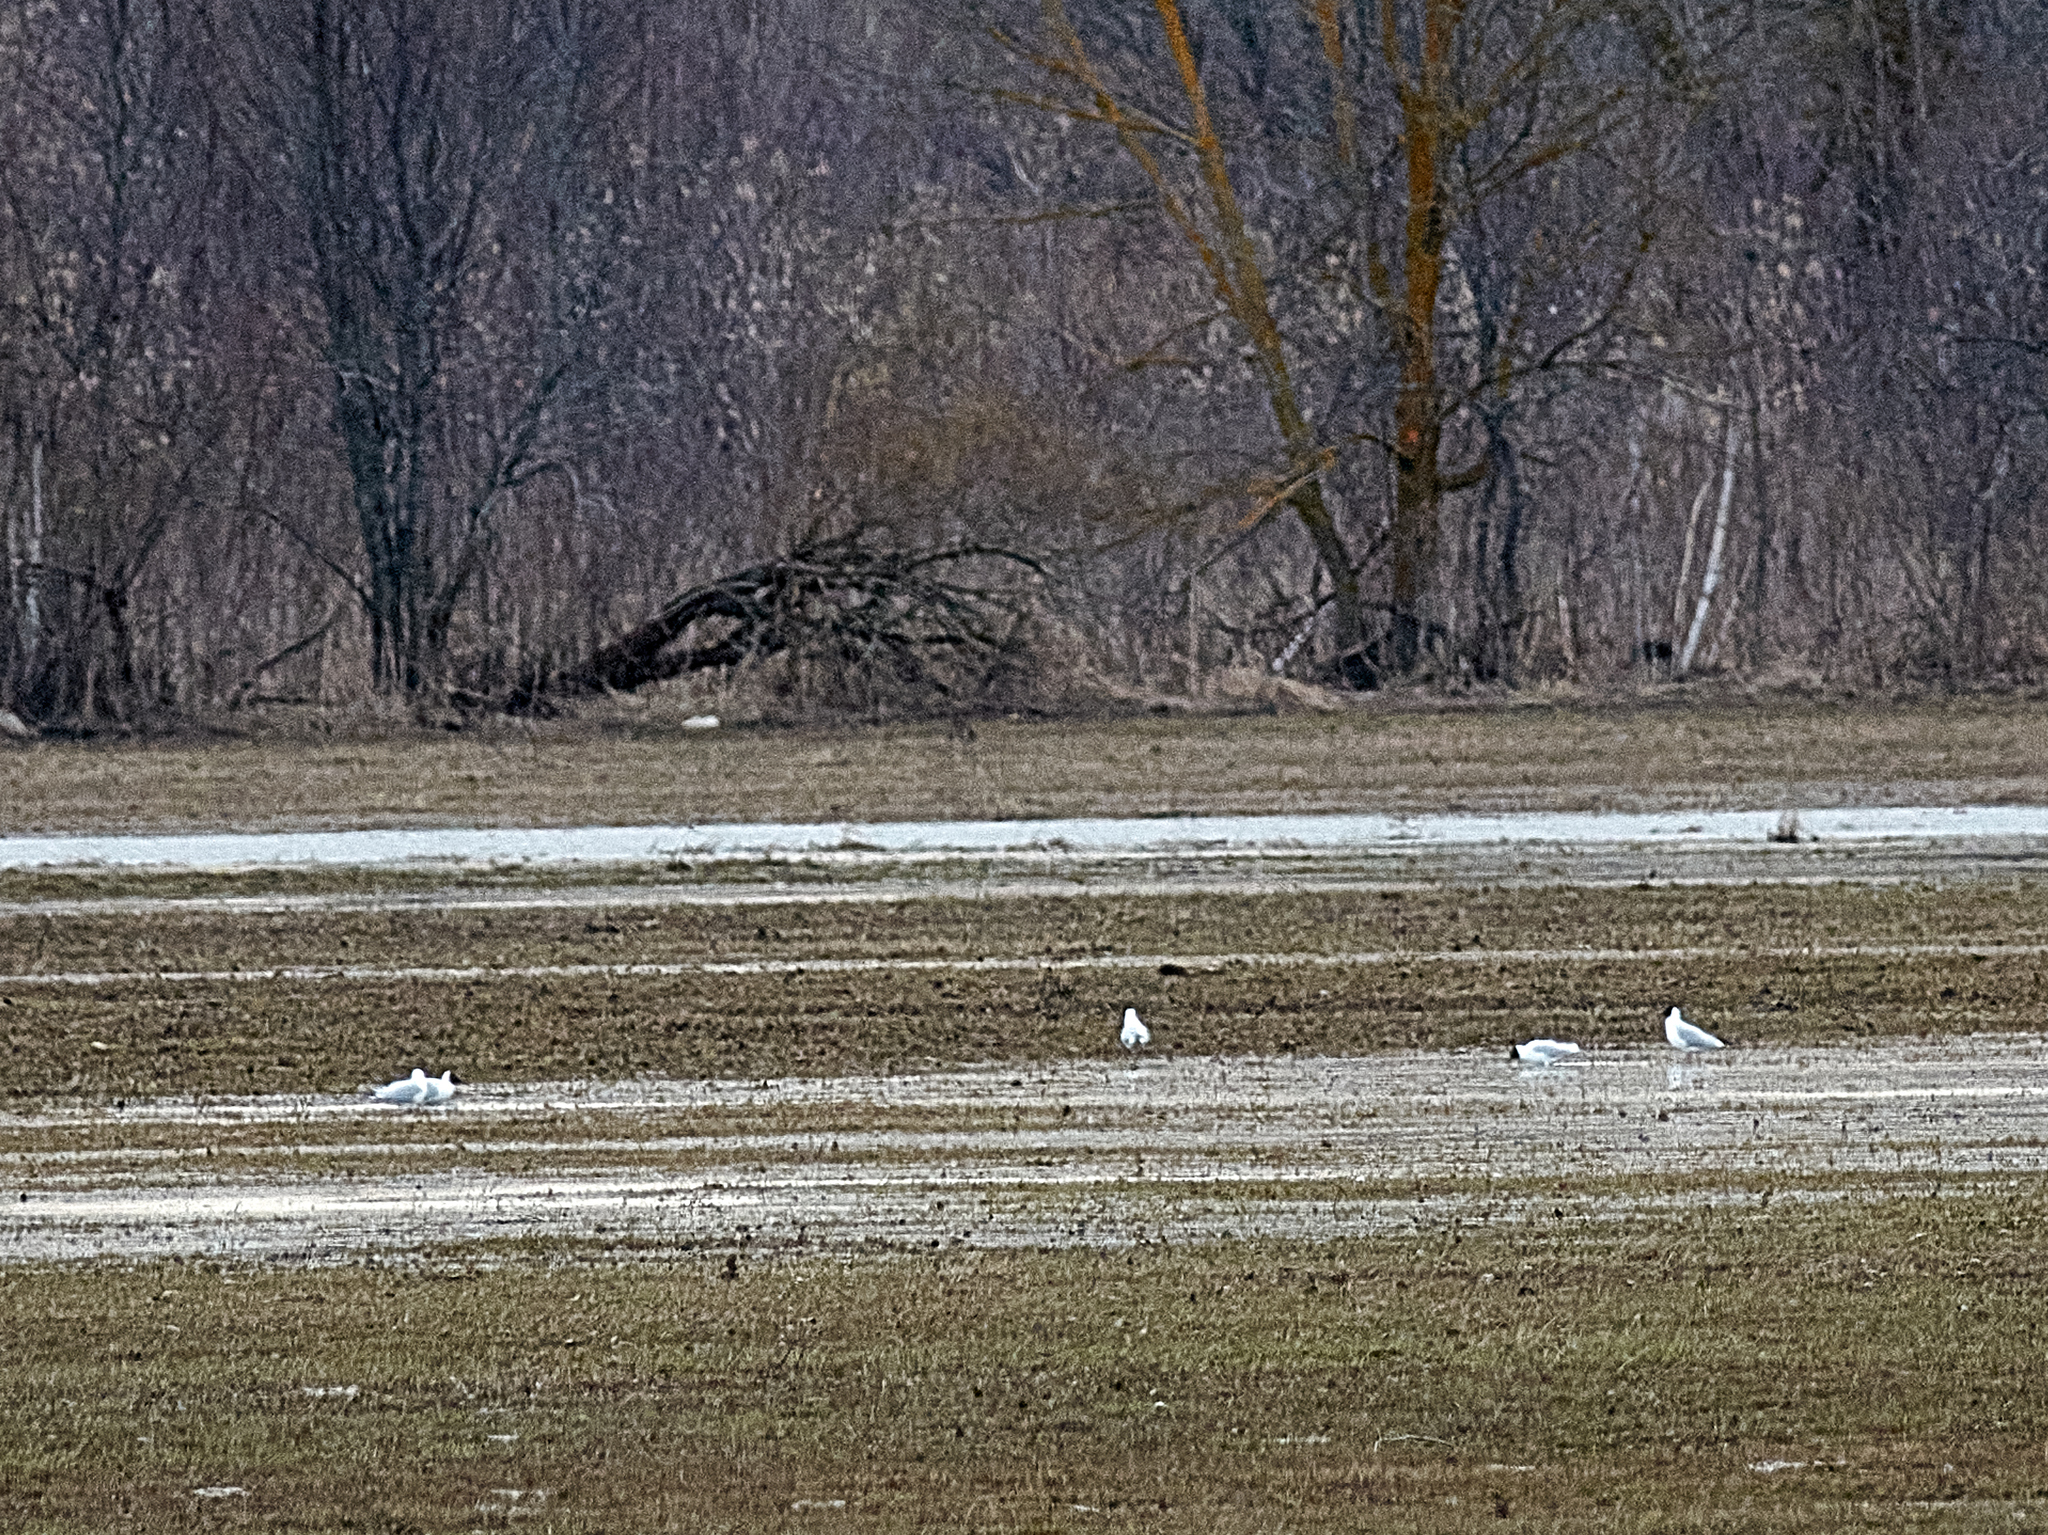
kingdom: Animalia
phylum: Chordata
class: Aves
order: Charadriiformes
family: Laridae
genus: Chroicocephalus
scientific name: Chroicocephalus ridibundus
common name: Black-headed gull
